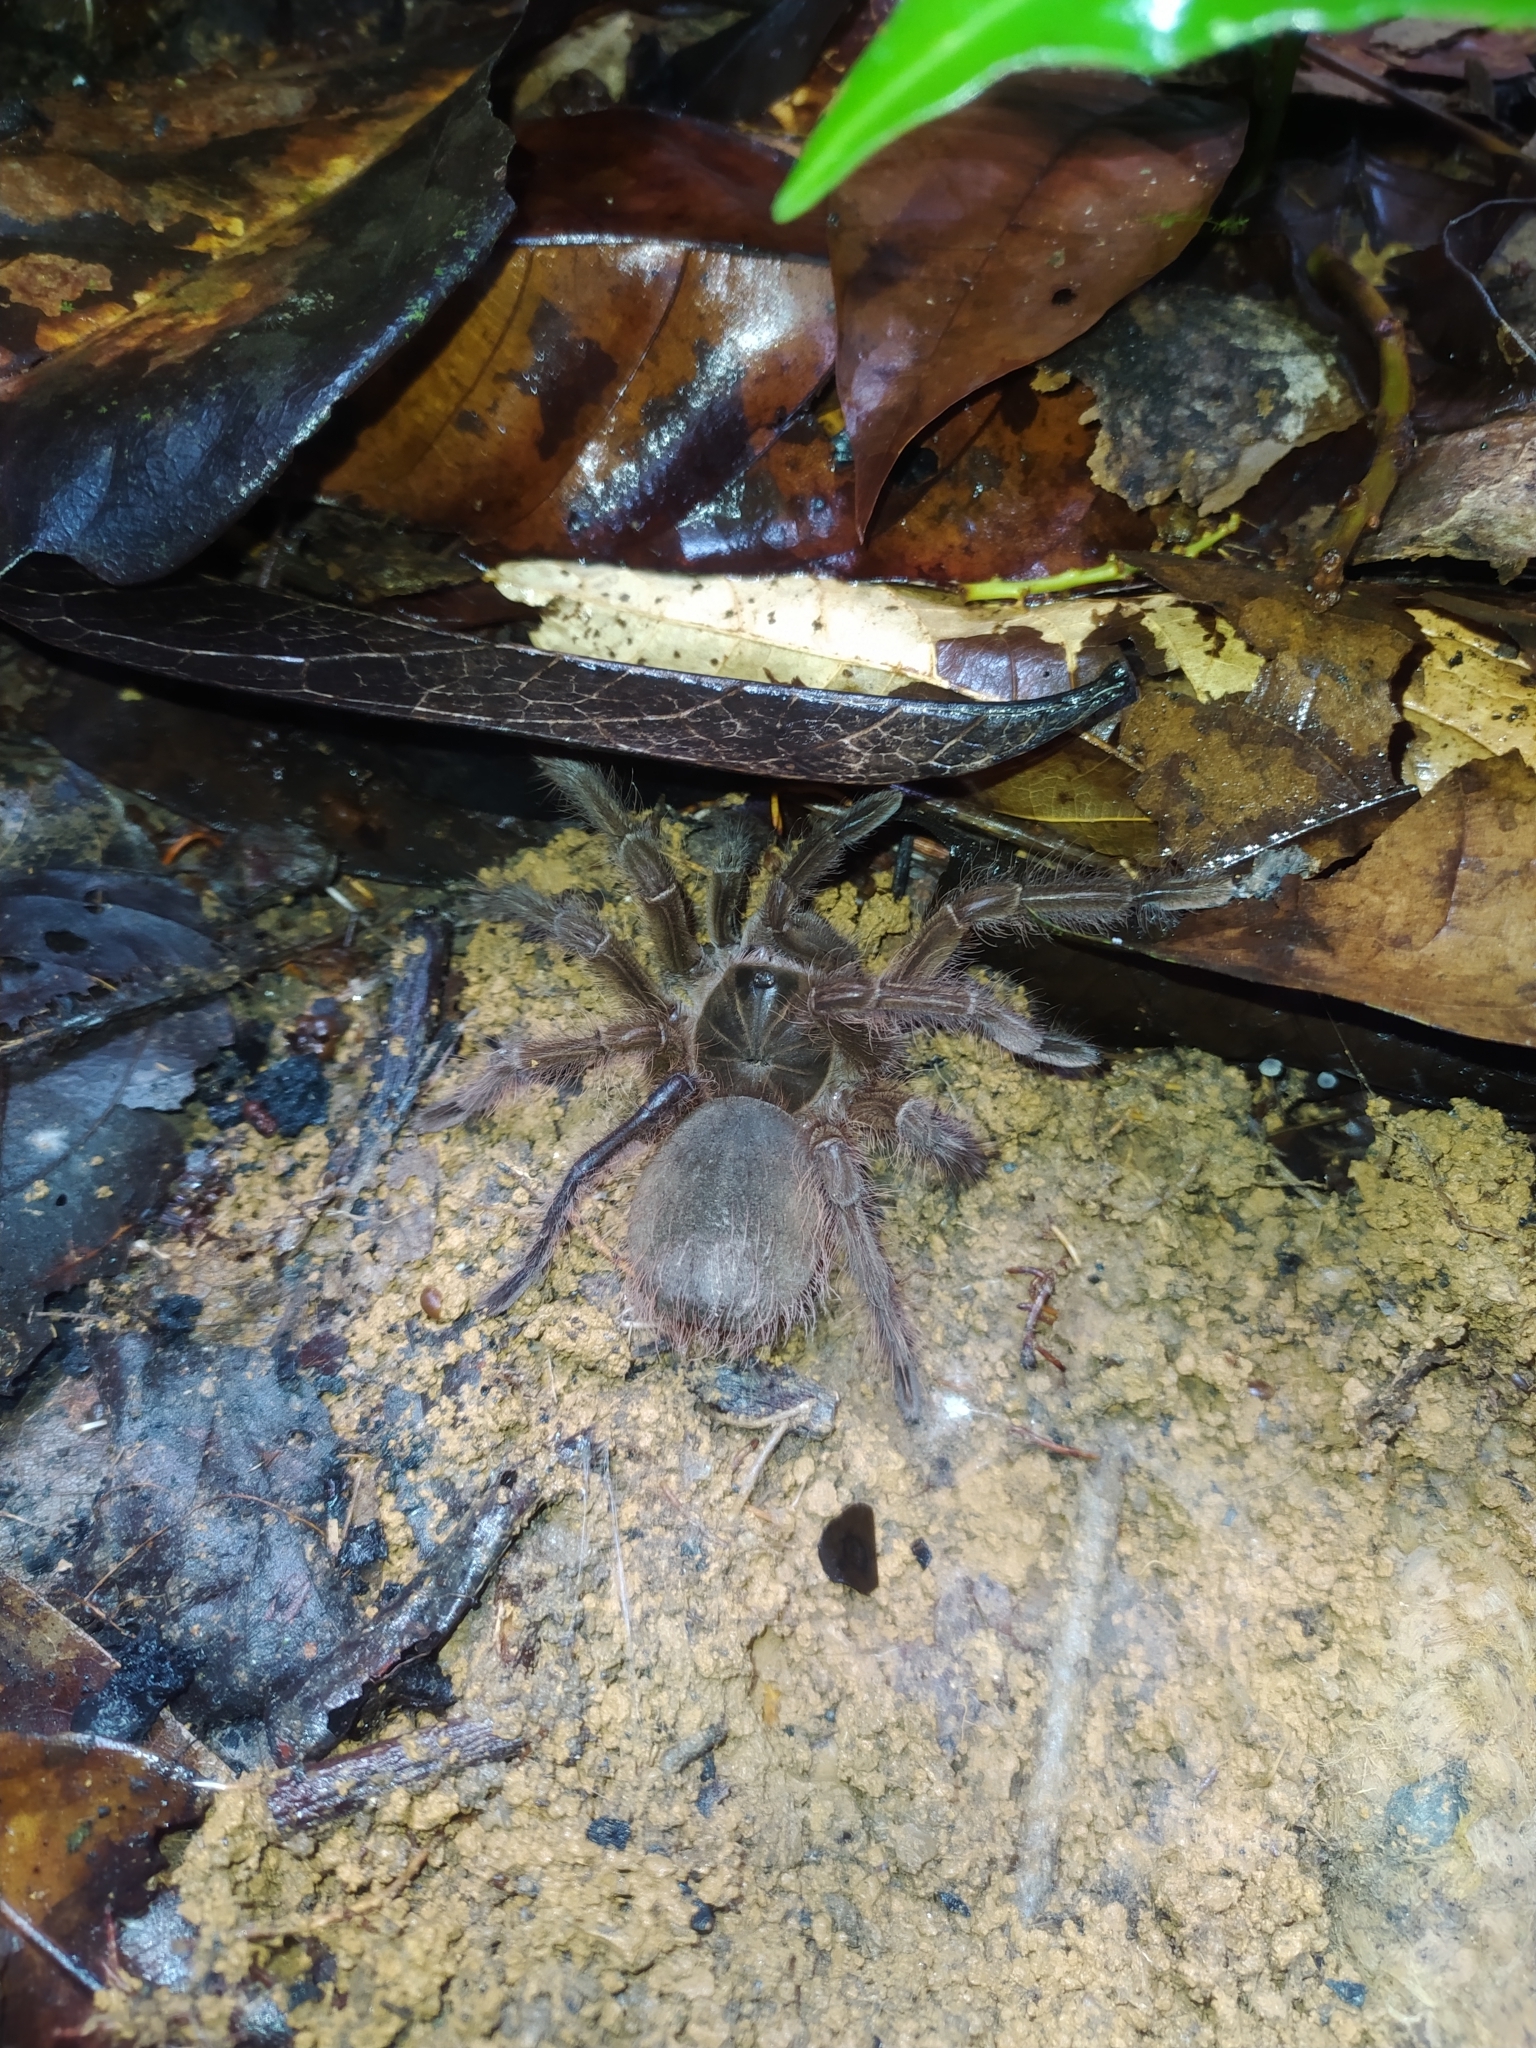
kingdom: Animalia
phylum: Arthropoda
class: Arachnida
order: Araneae
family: Theraphosidae
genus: Theraphosa
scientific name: Theraphosa blondi
